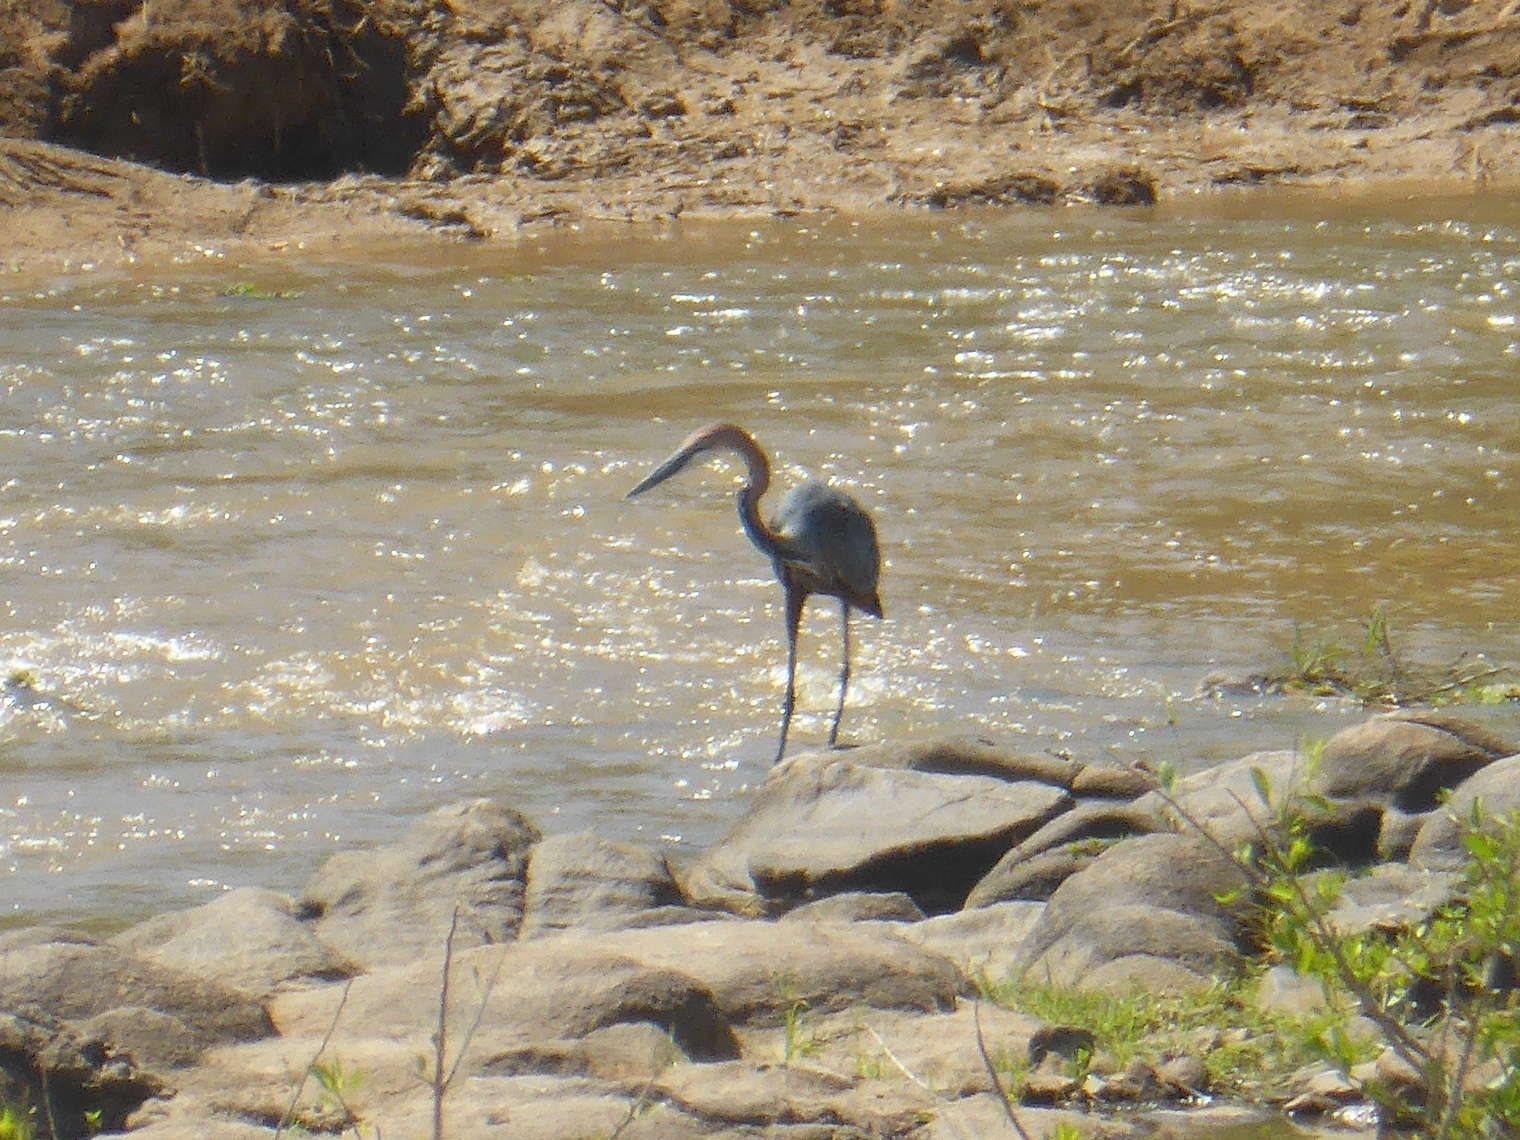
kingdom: Animalia
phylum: Chordata
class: Aves
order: Pelecaniformes
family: Ardeidae
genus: Ardea
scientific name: Ardea goliath
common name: Goliath heron
